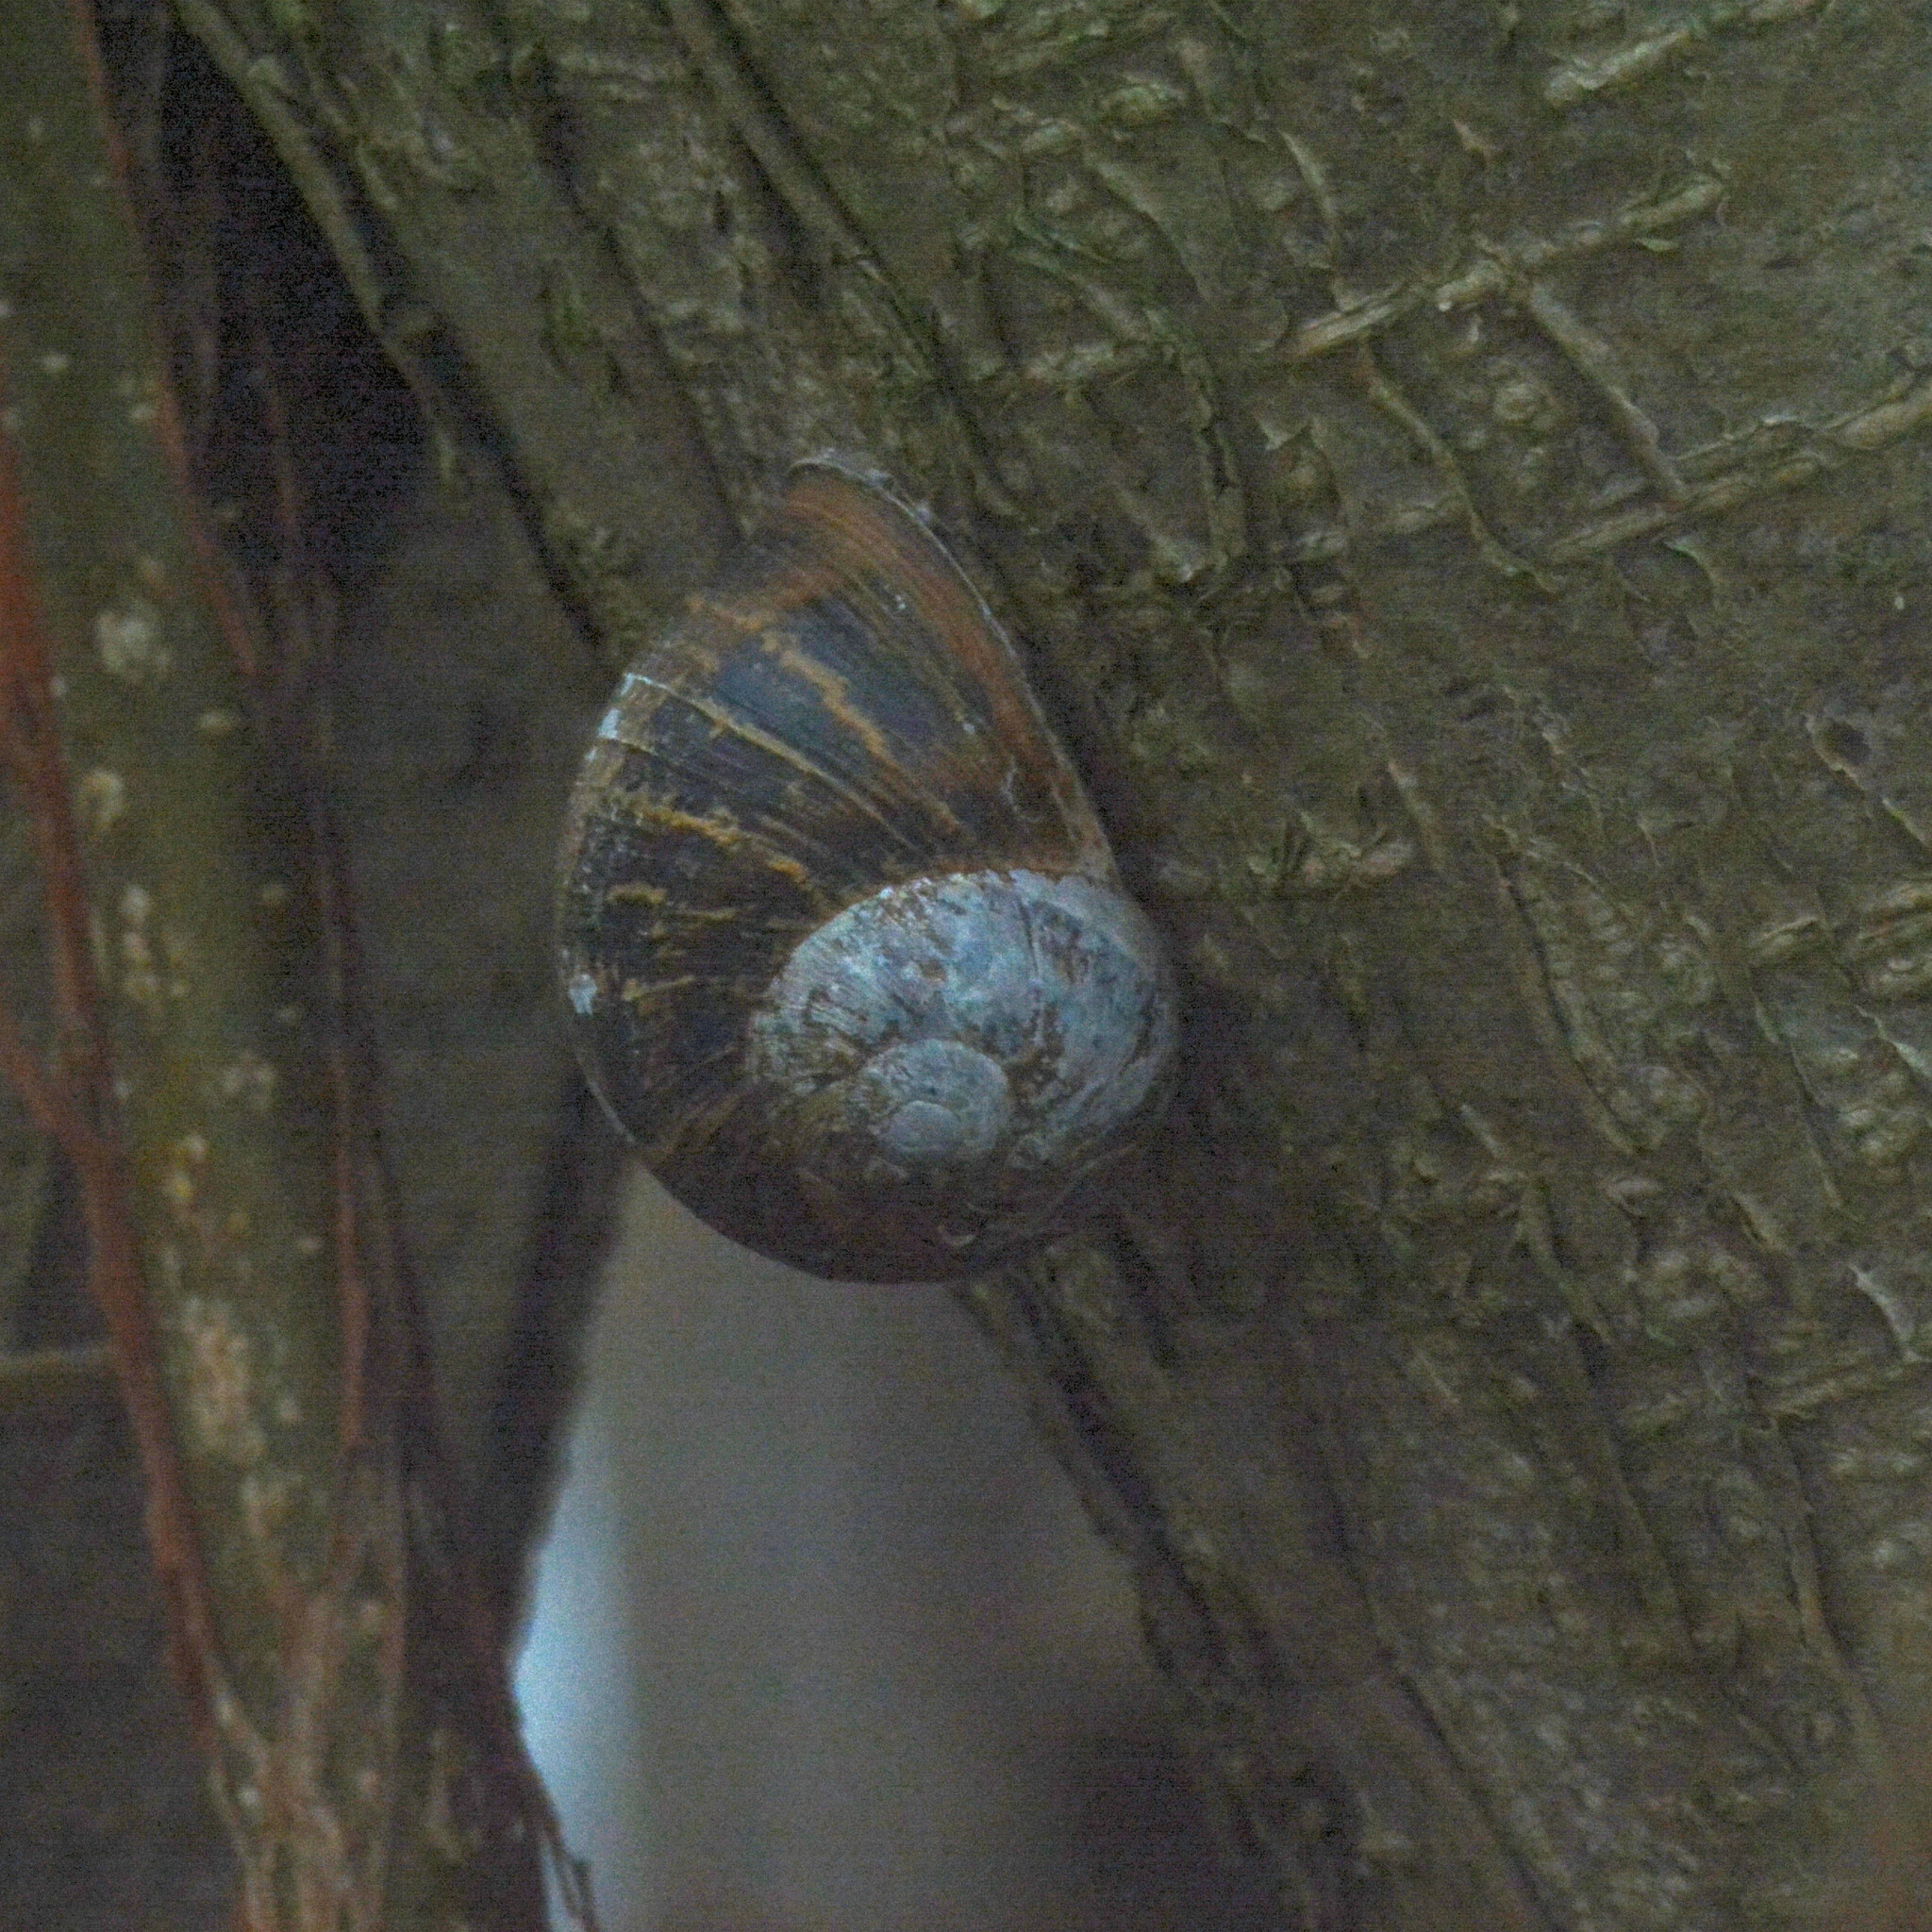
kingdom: Animalia
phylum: Mollusca
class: Gastropoda
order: Stylommatophora
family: Helicidae
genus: Cornu
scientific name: Cornu aspersum
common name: Brown garden snail
